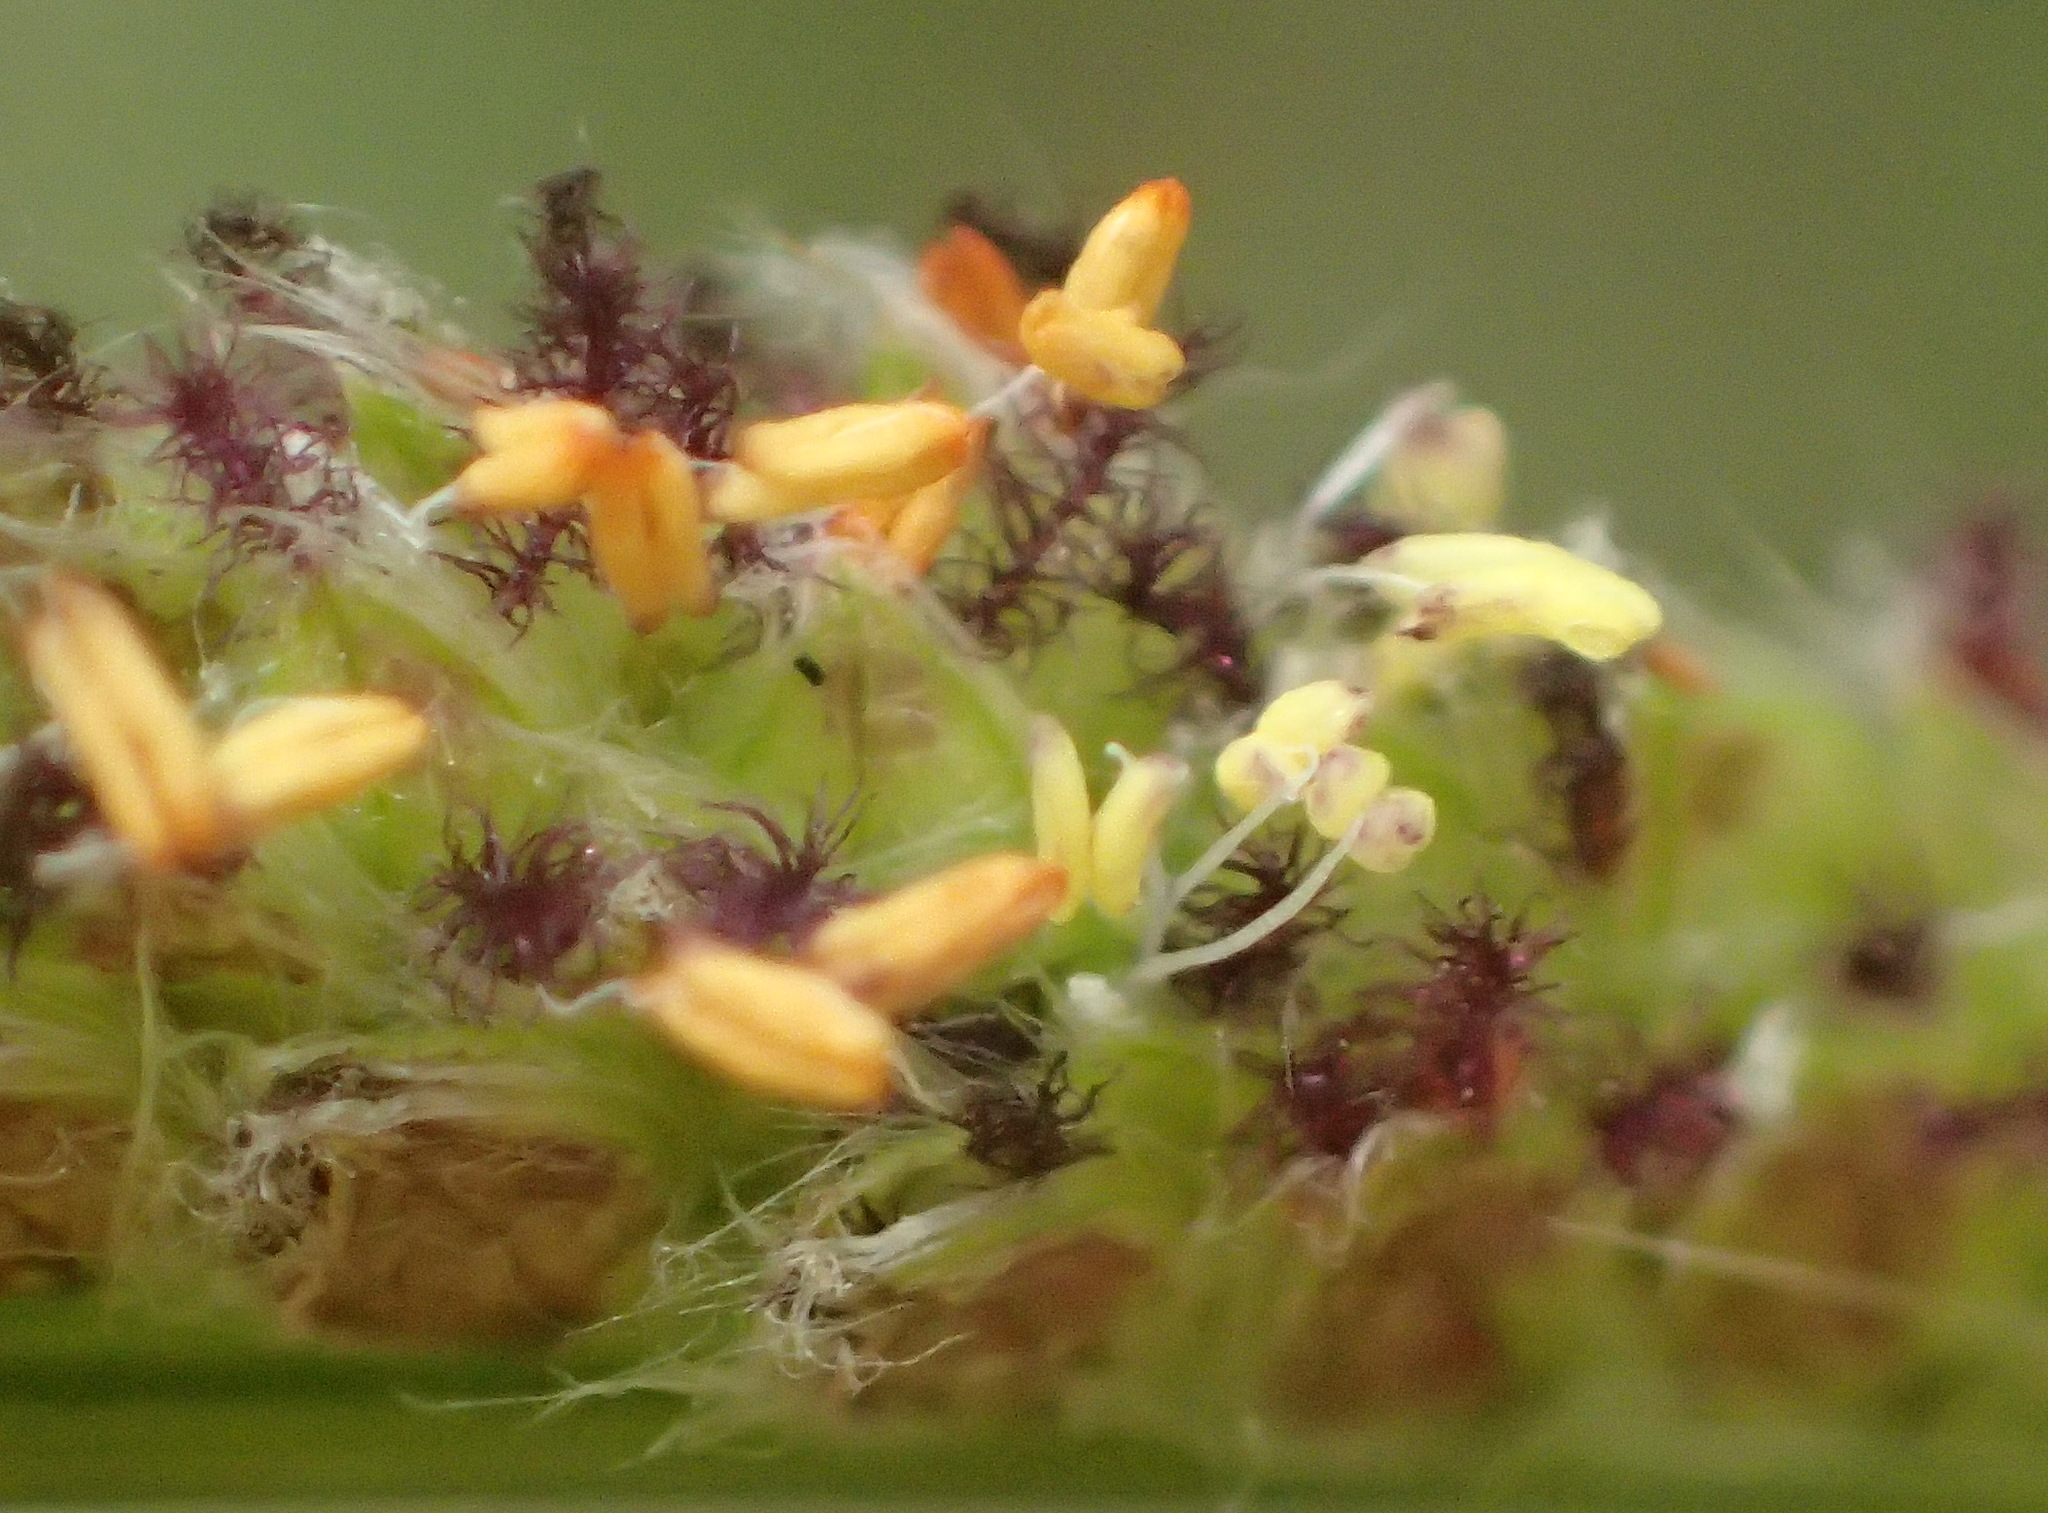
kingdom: Plantae
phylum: Tracheophyta
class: Liliopsida
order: Poales
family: Poaceae
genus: Paspalum
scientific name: Paspalum urvillei
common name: Vasey's grass
